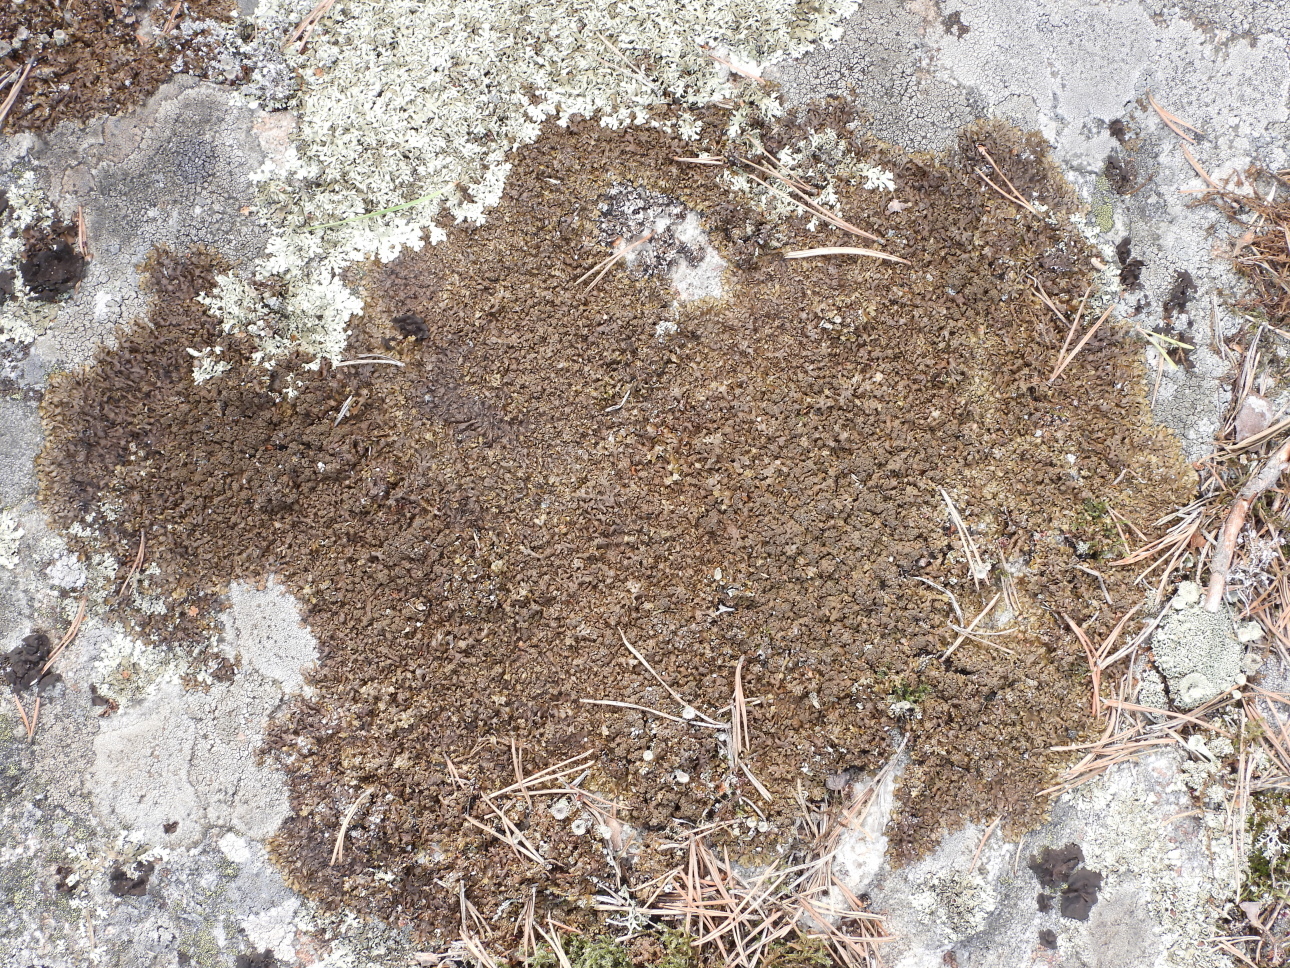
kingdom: Fungi
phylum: Ascomycota
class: Lecanoromycetes
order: Lecanorales
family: Parmeliaceae
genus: Xanthoparmelia
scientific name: Xanthoparmelia loxodes
